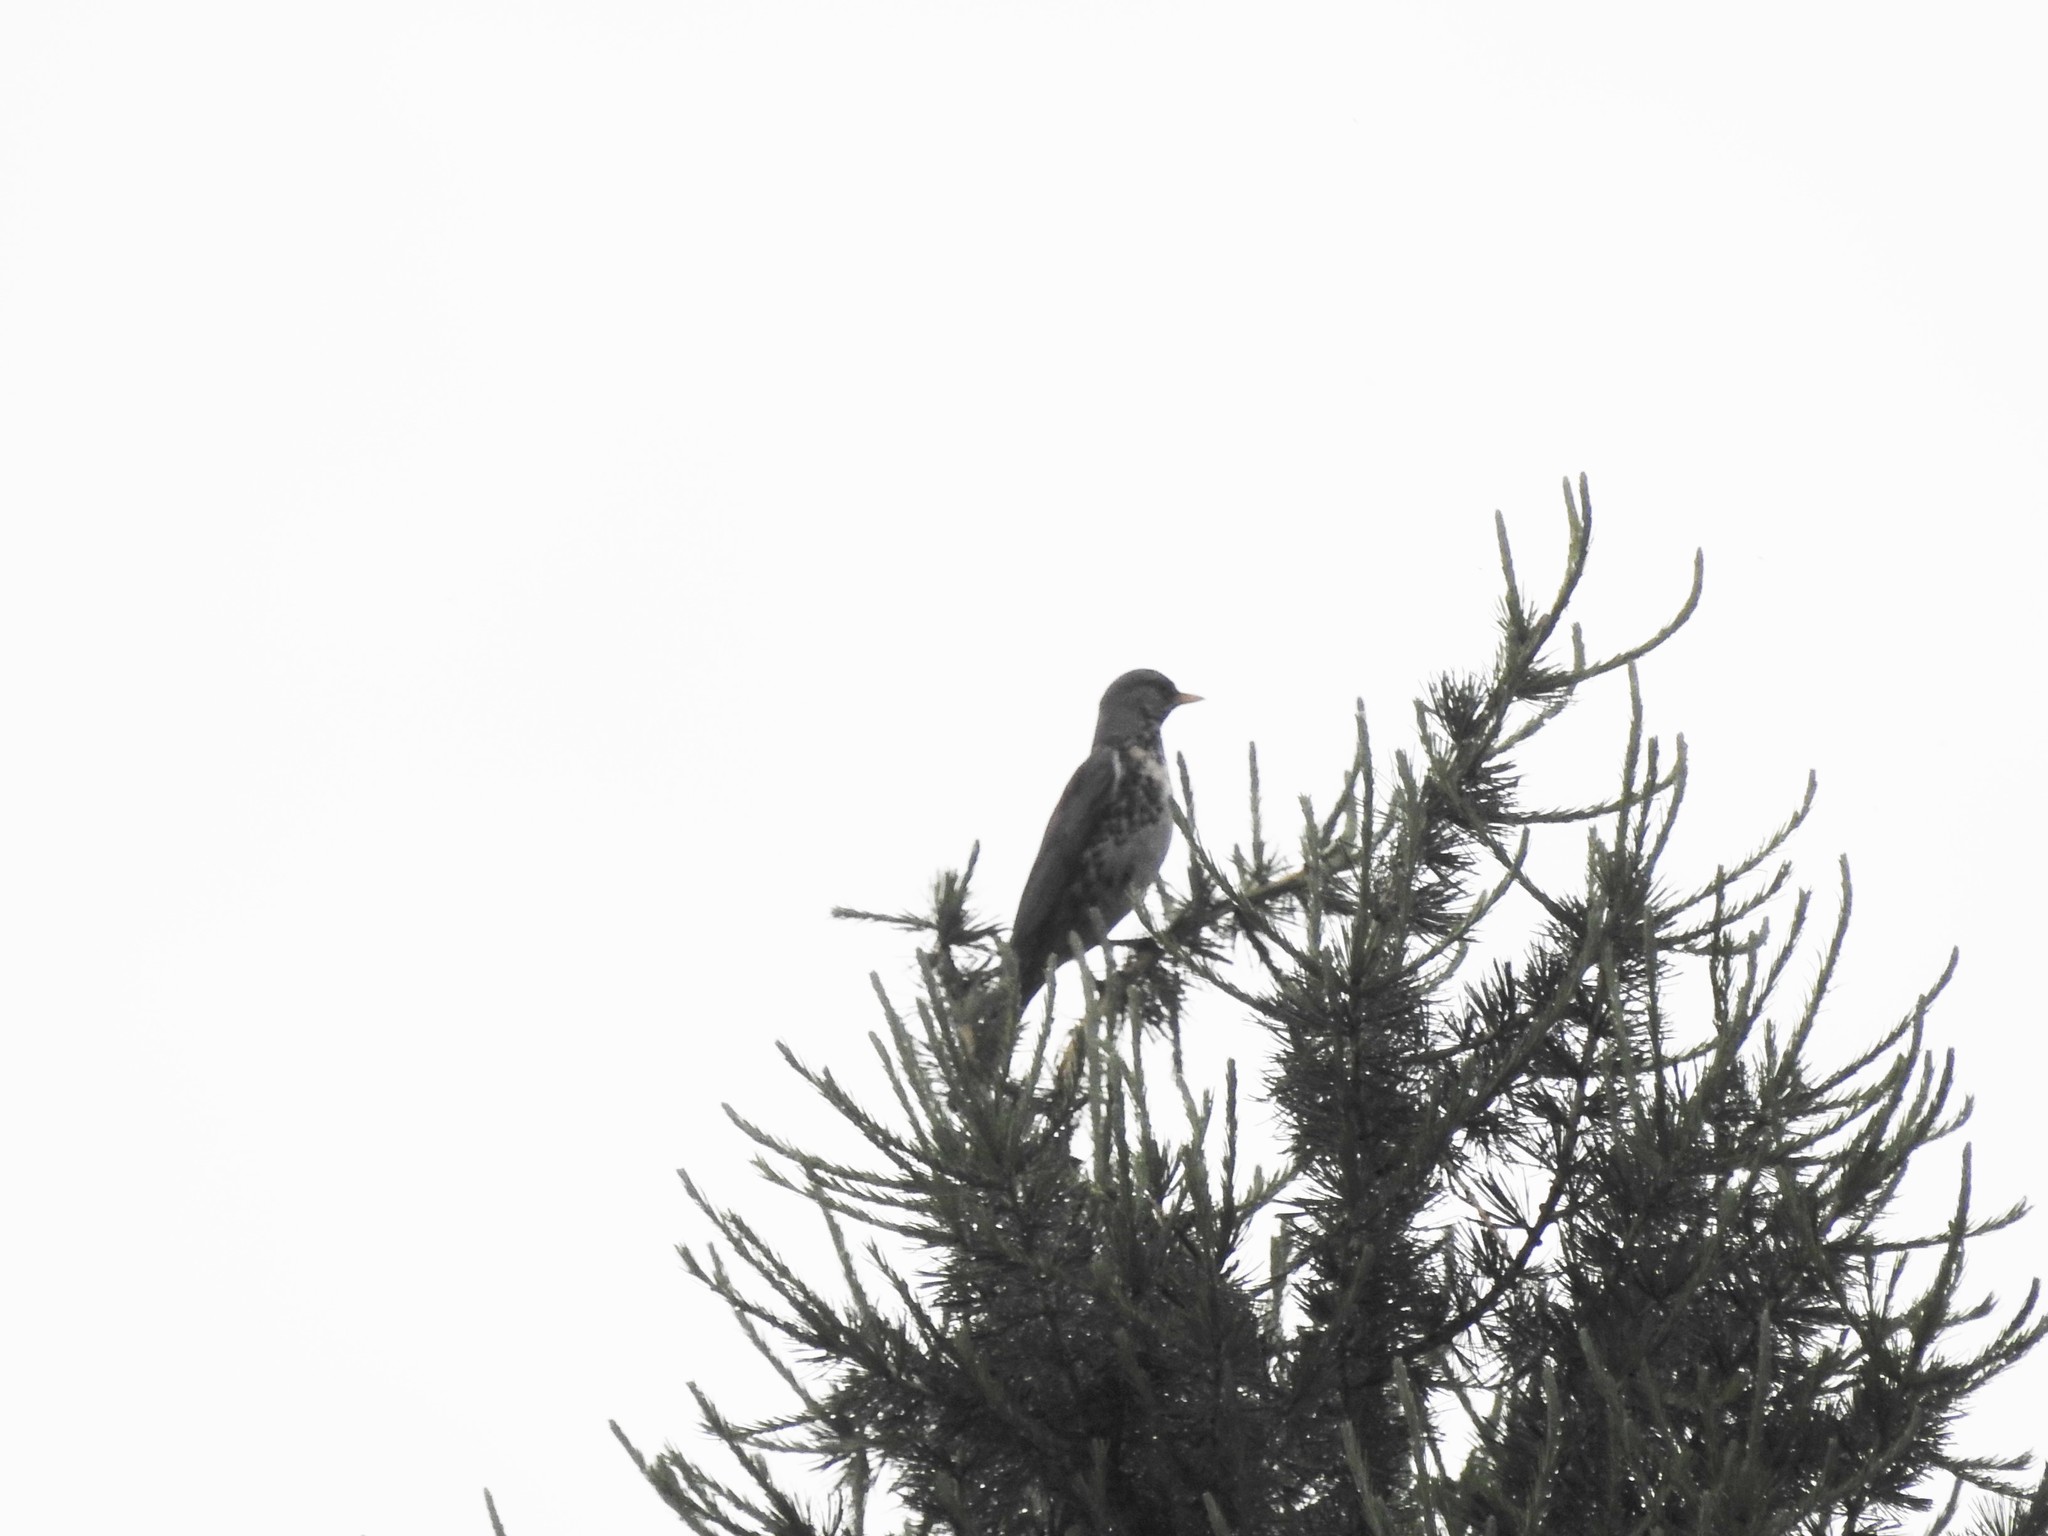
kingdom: Animalia
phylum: Chordata
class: Aves
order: Passeriformes
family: Turdidae
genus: Turdus
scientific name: Turdus pilaris
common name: Fieldfare
